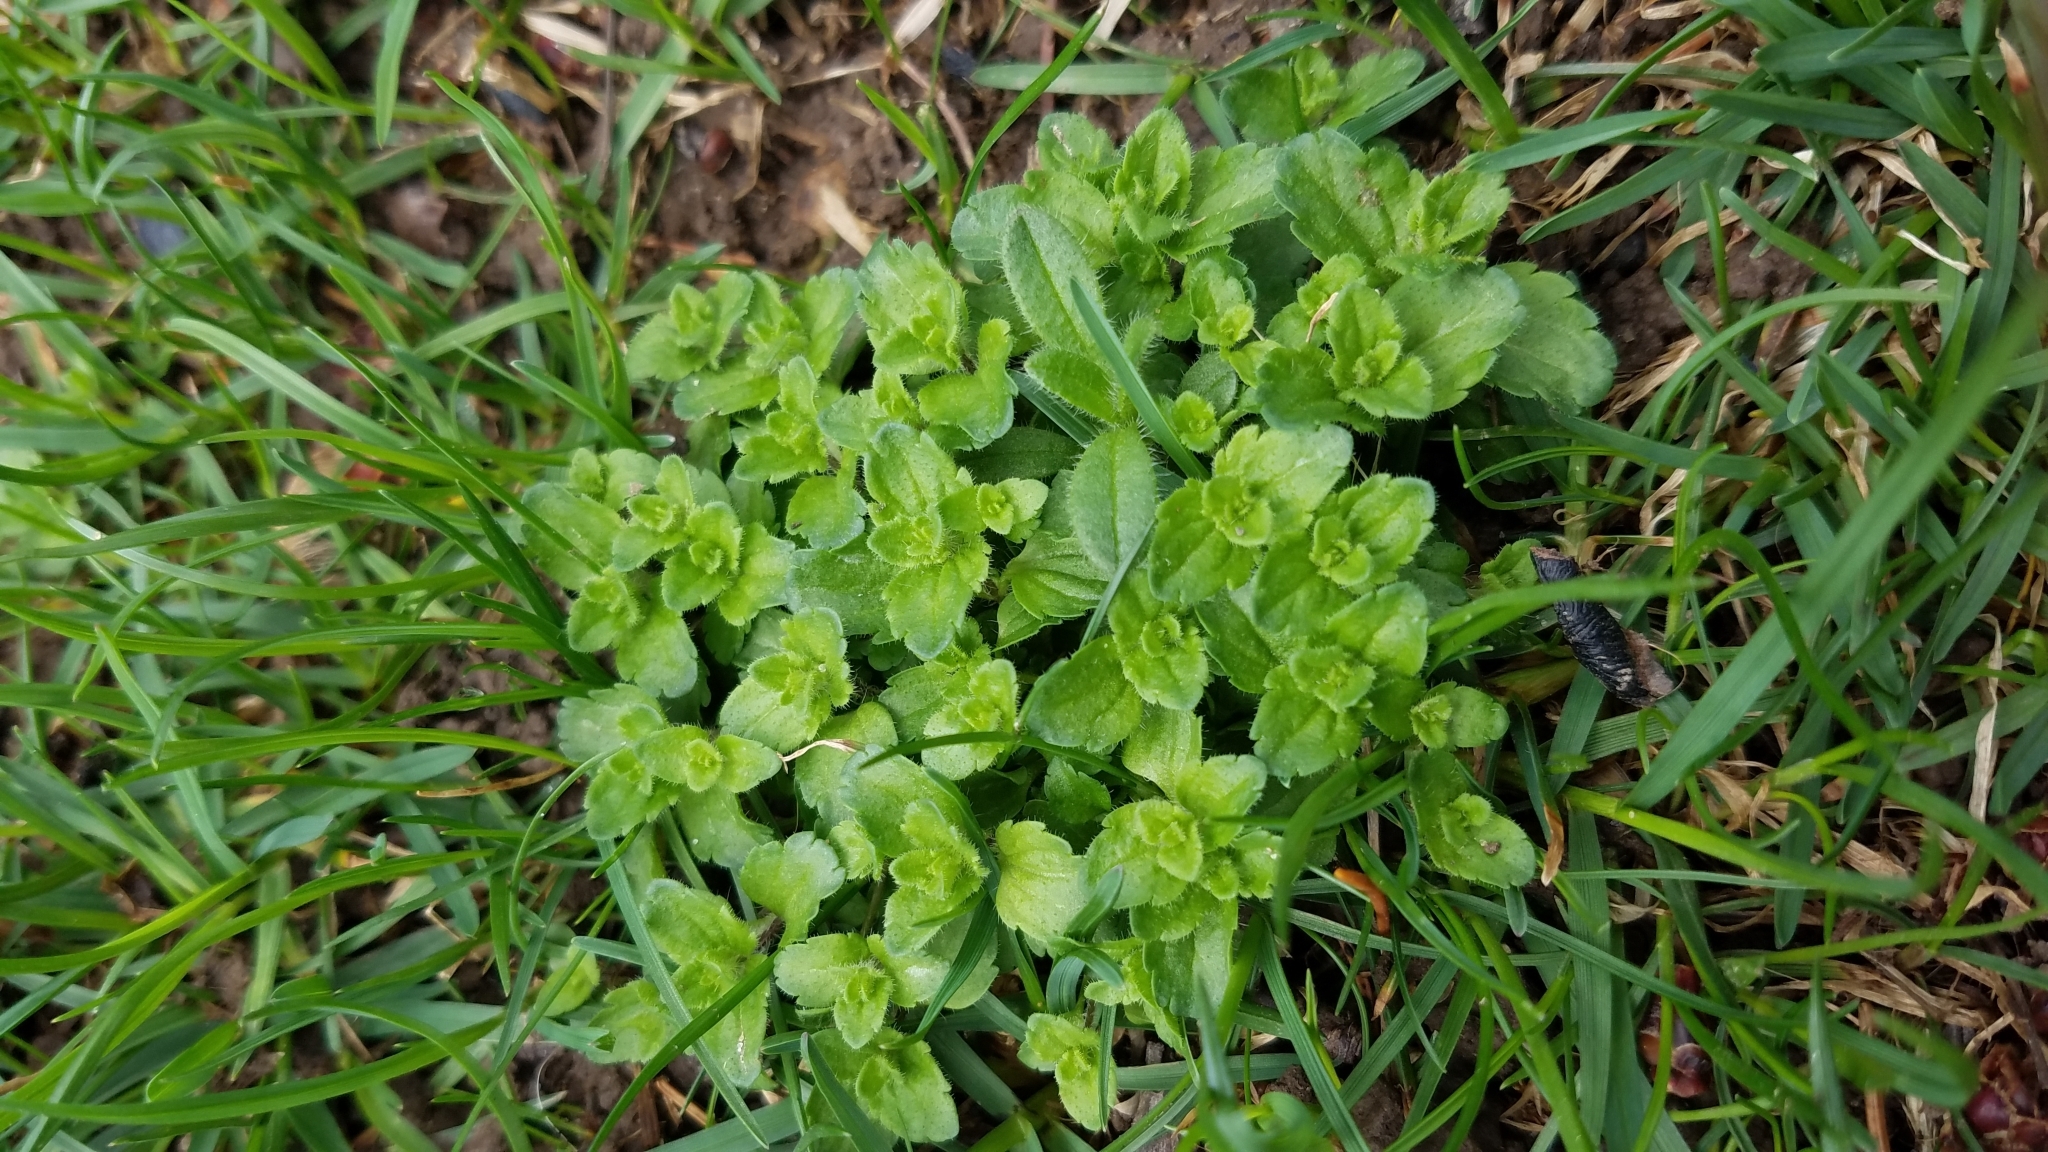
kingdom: Plantae
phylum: Tracheophyta
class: Magnoliopsida
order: Lamiales
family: Plantaginaceae
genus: Veronica
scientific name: Veronica arvensis
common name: Corn speedwell
